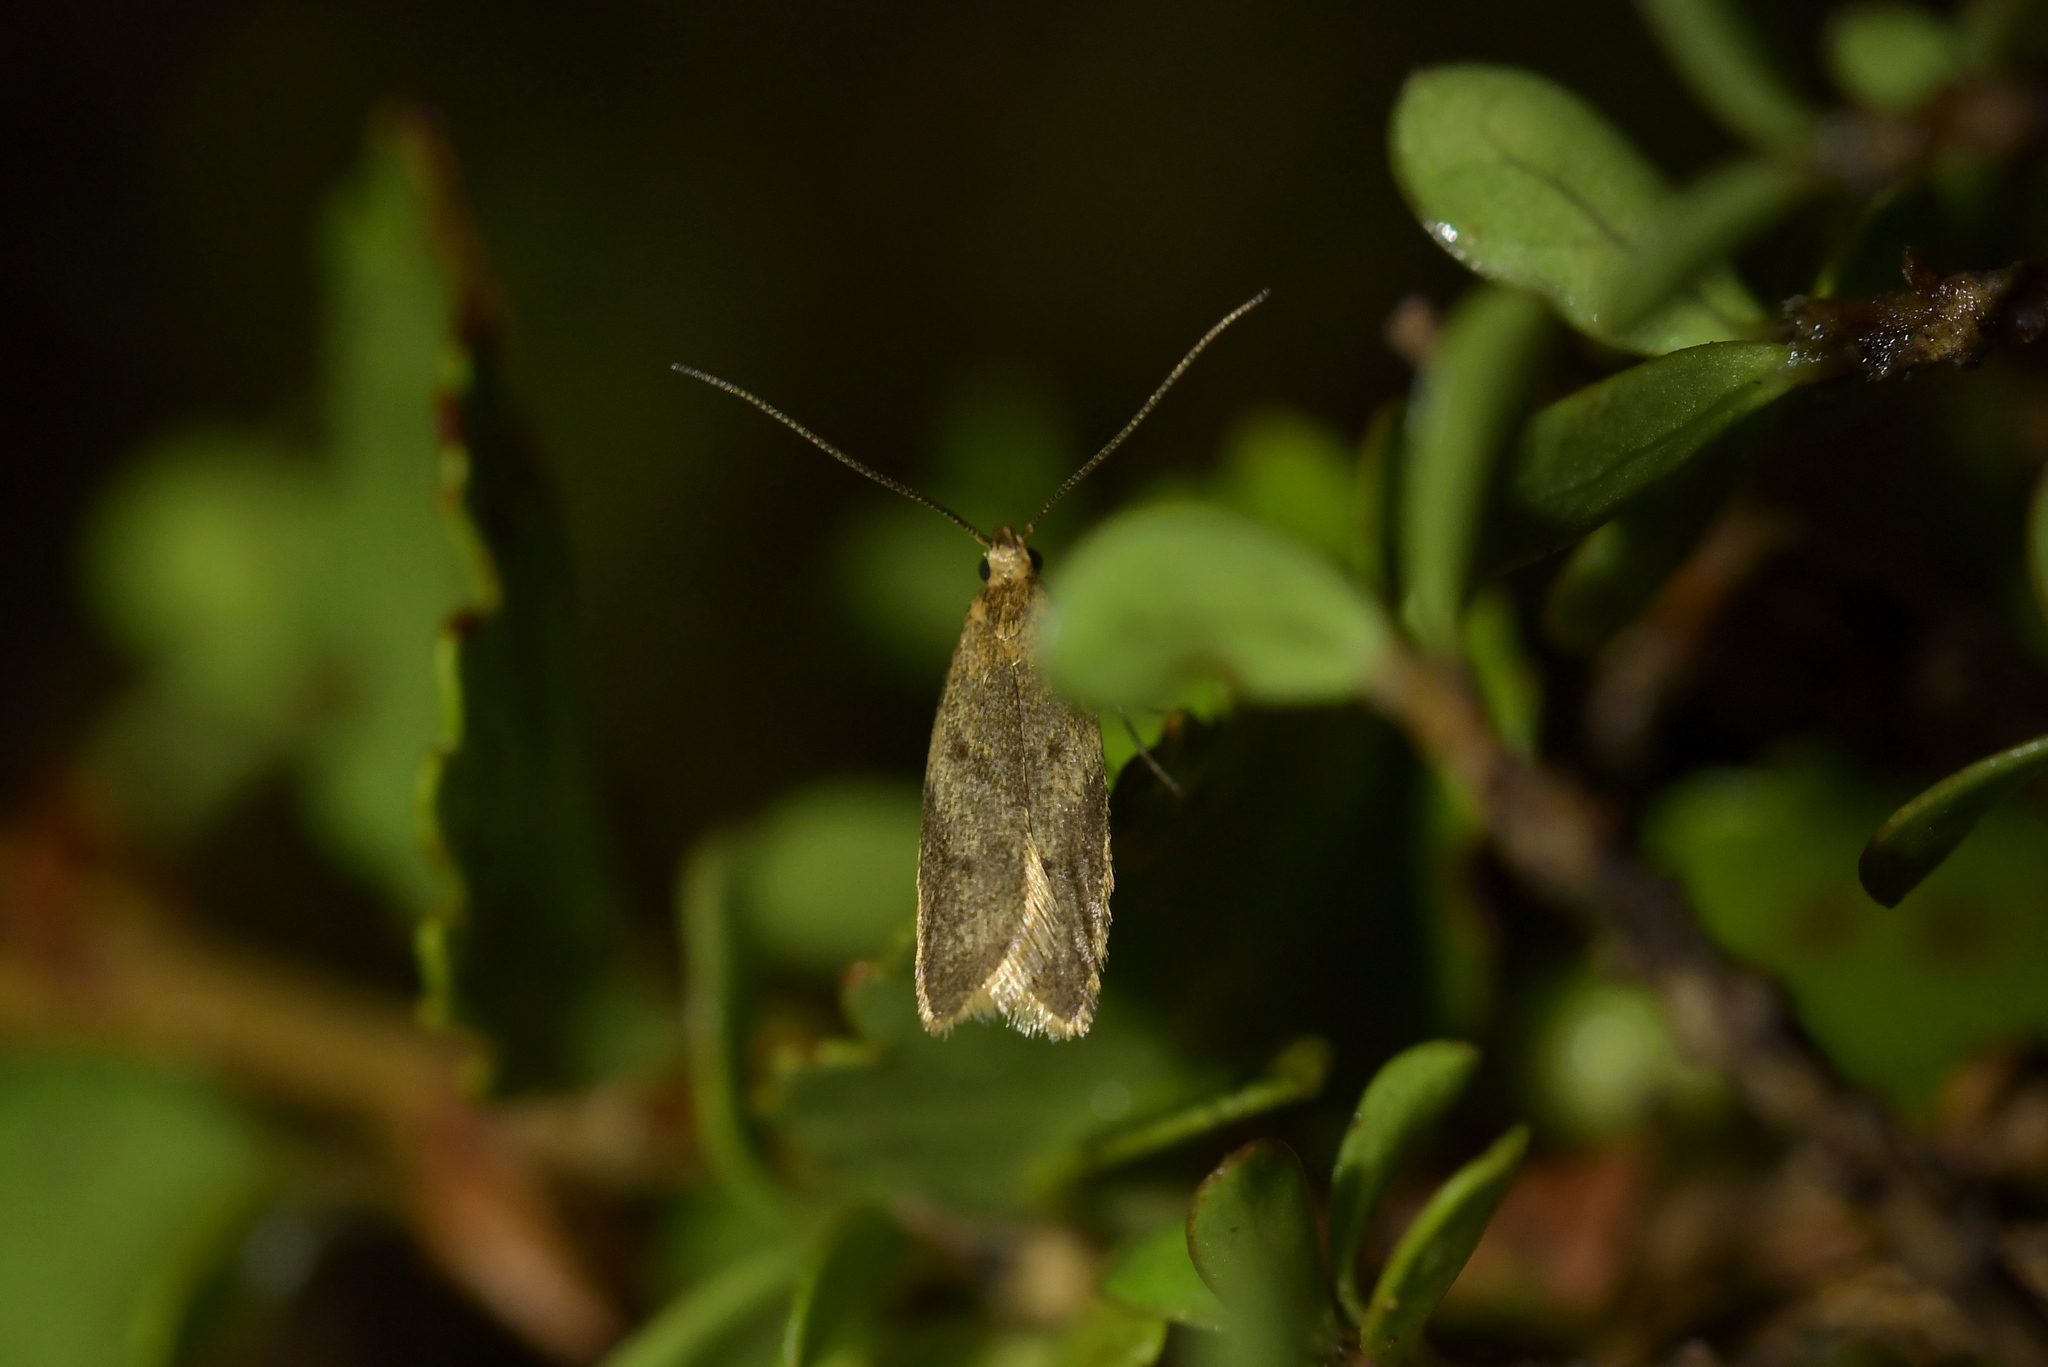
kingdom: Animalia
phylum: Arthropoda
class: Insecta
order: Lepidoptera
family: Oecophoridae
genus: Gymnobathra
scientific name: Gymnobathra tholodella
